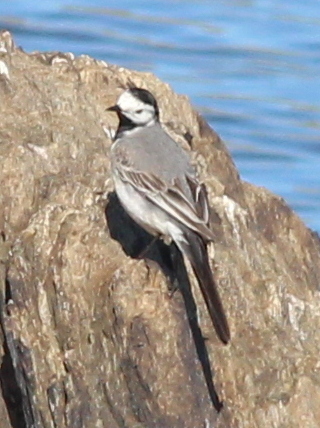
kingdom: Animalia
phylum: Chordata
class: Aves
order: Passeriformes
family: Motacillidae
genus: Motacilla
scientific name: Motacilla alba
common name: White wagtail
